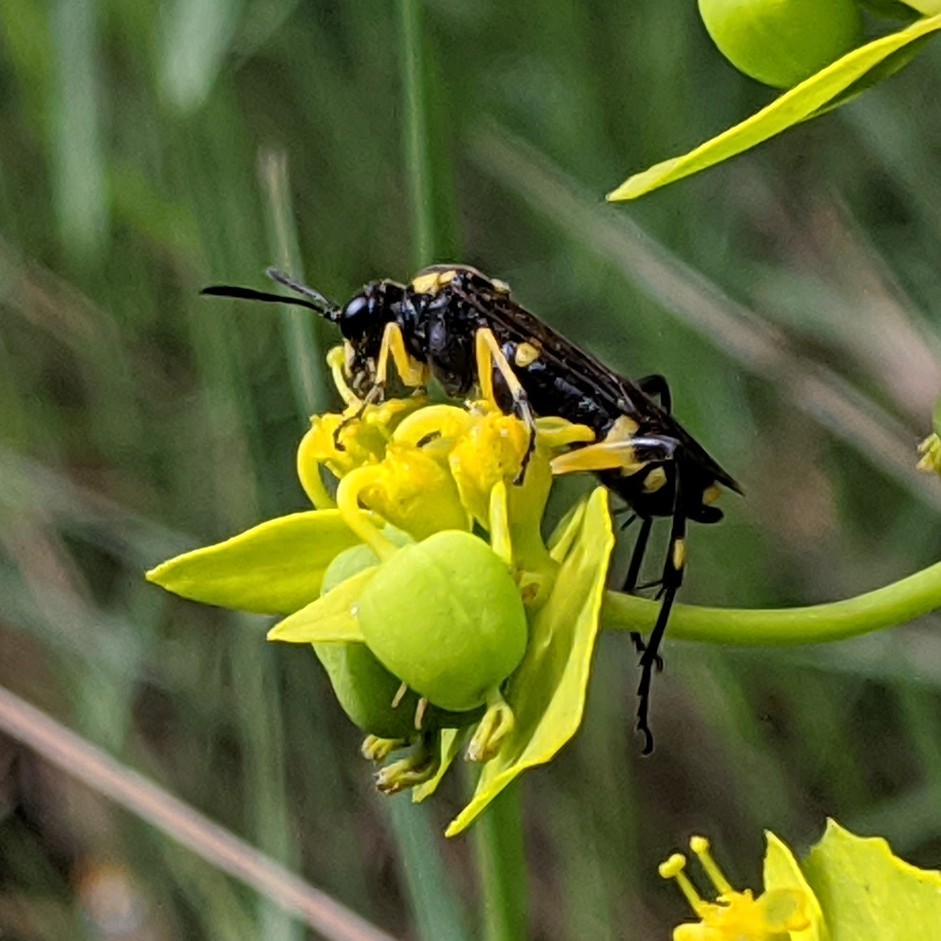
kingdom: Animalia
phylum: Arthropoda
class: Insecta
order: Hymenoptera
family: Tenthredinidae
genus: Macrophya
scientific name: Macrophya montana
